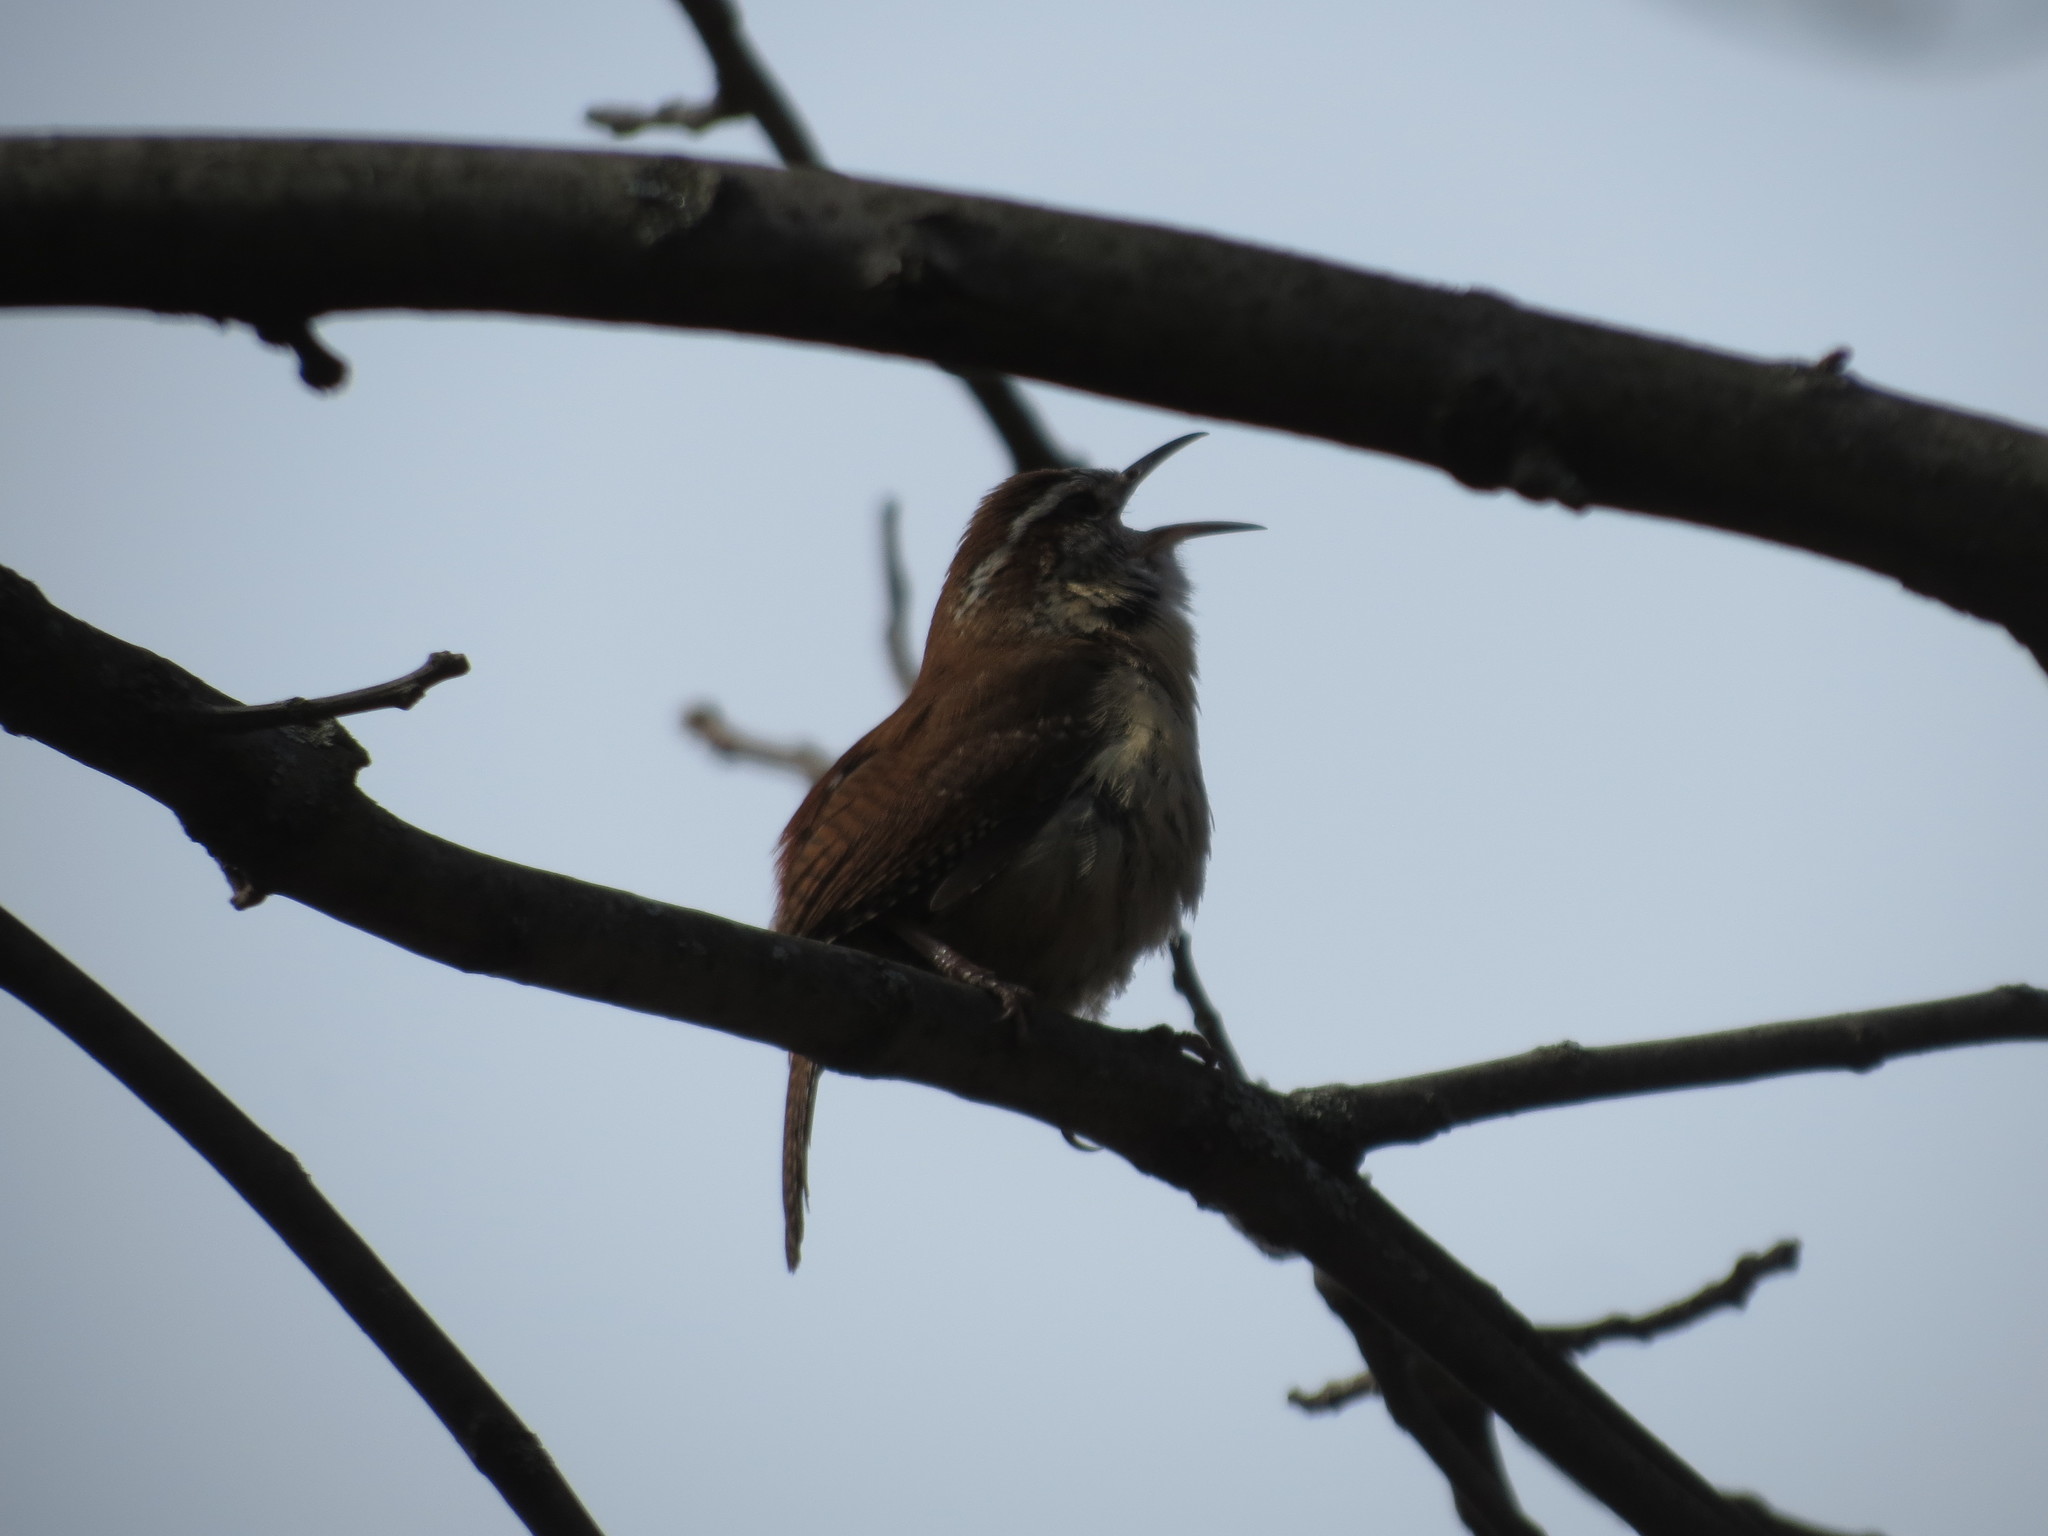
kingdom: Animalia
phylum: Chordata
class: Aves
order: Passeriformes
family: Troglodytidae
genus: Thryothorus
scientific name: Thryothorus ludovicianus
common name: Carolina wren
